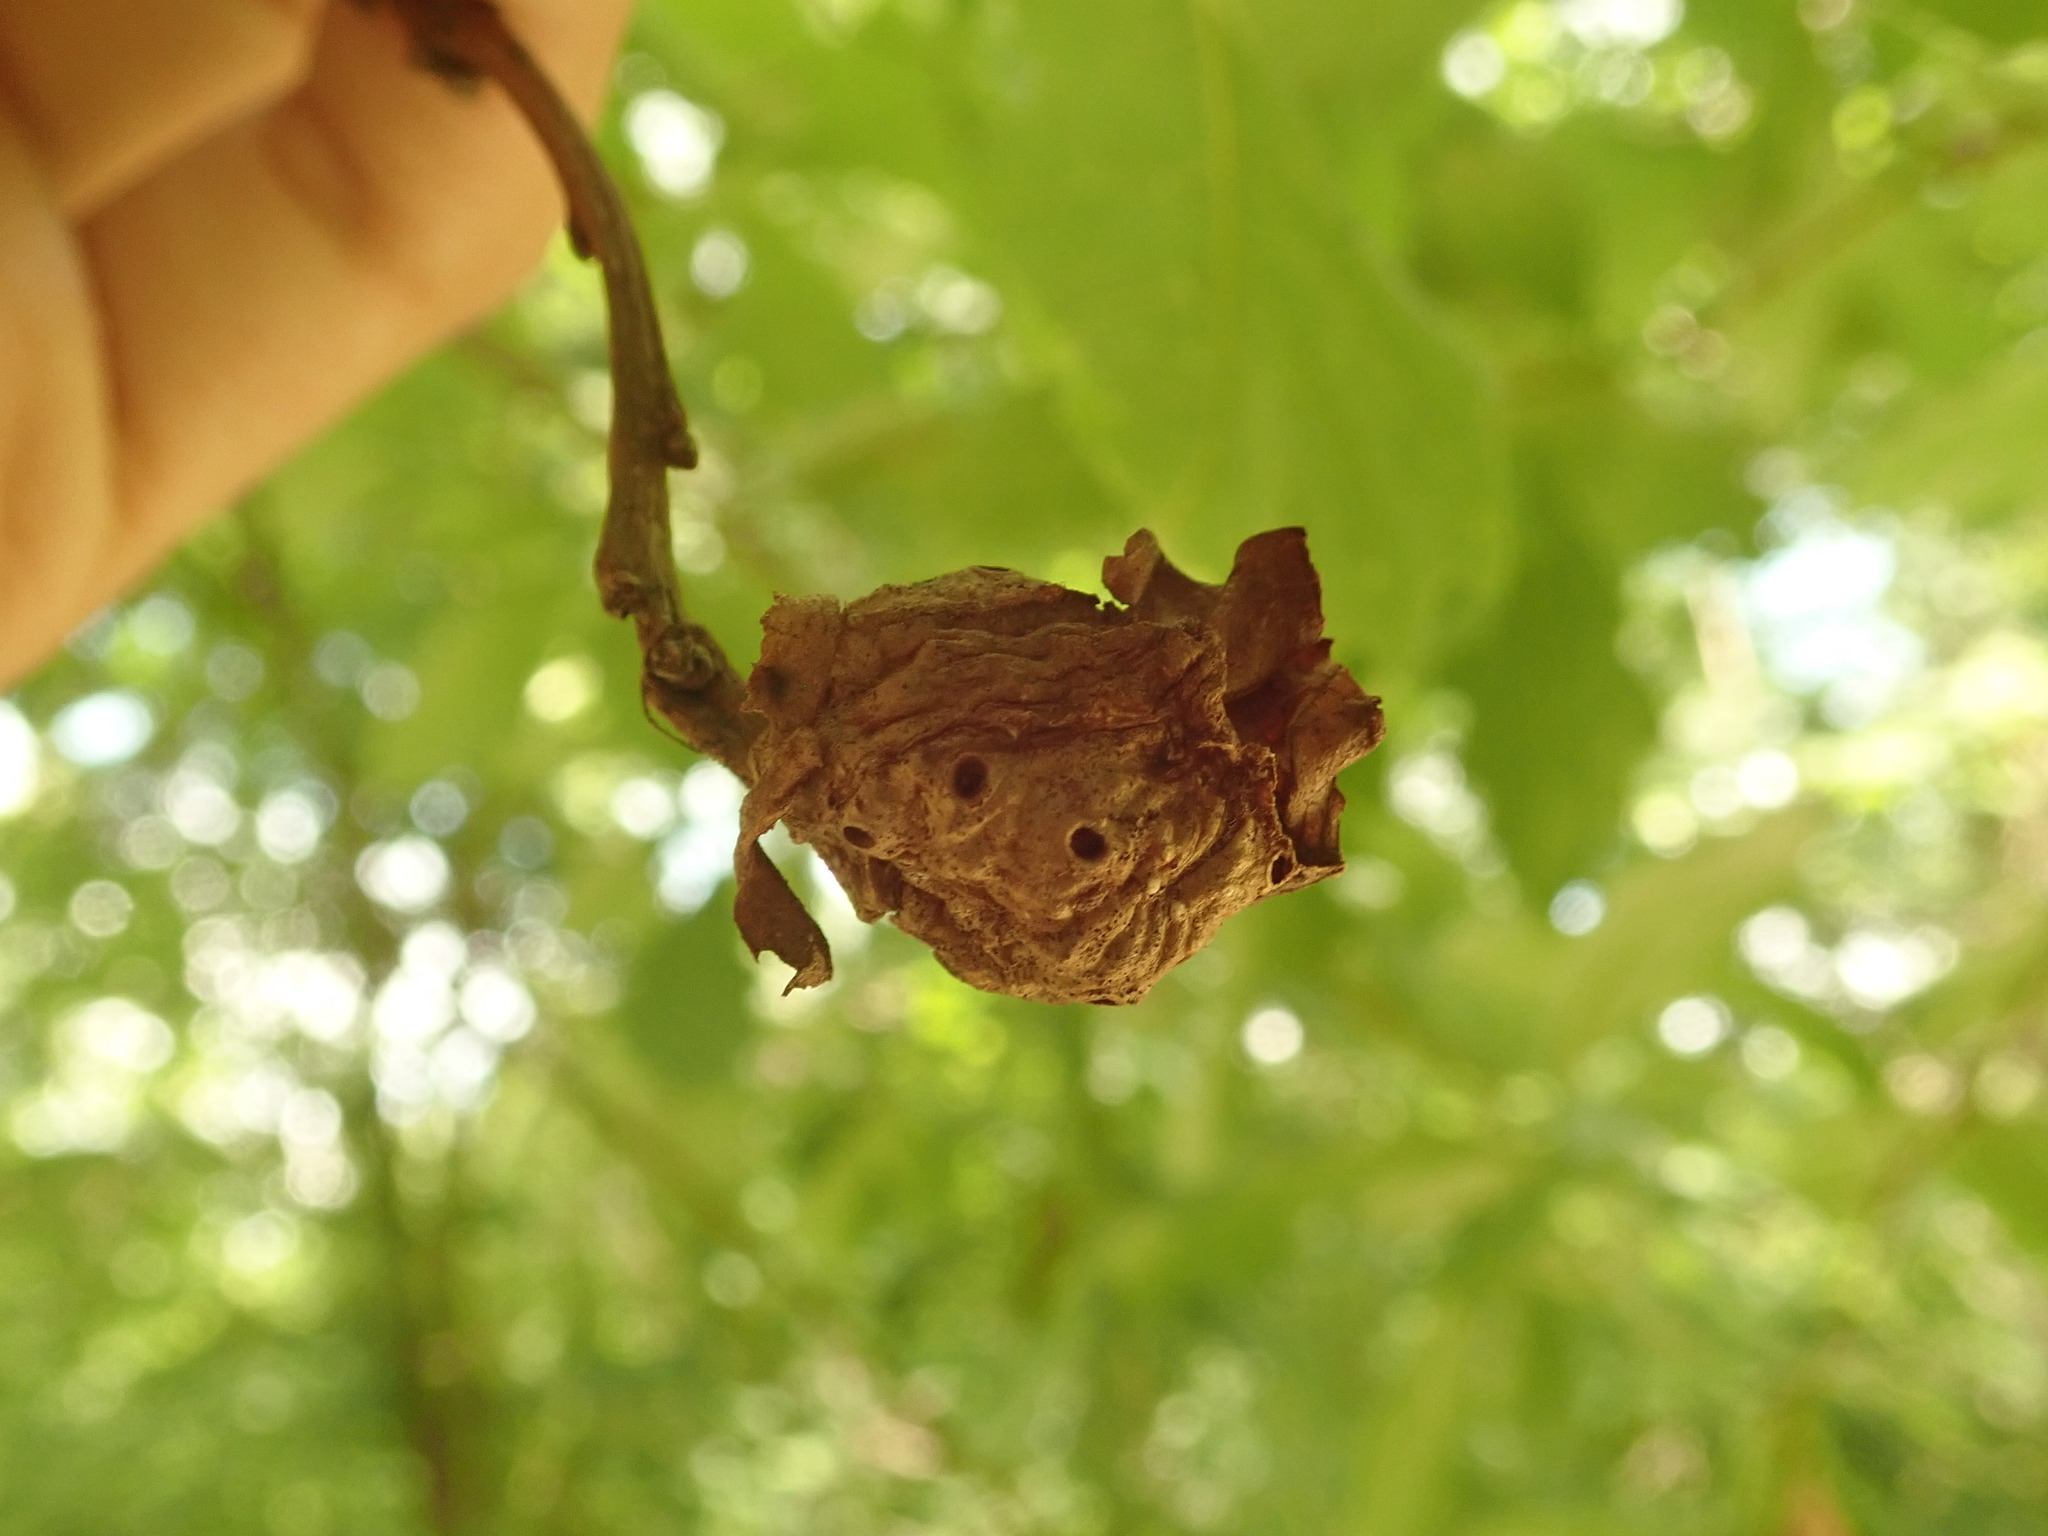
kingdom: Animalia
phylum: Arthropoda
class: Insecta
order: Hymenoptera
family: Cynipidae
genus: Andricus
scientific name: Andricus
